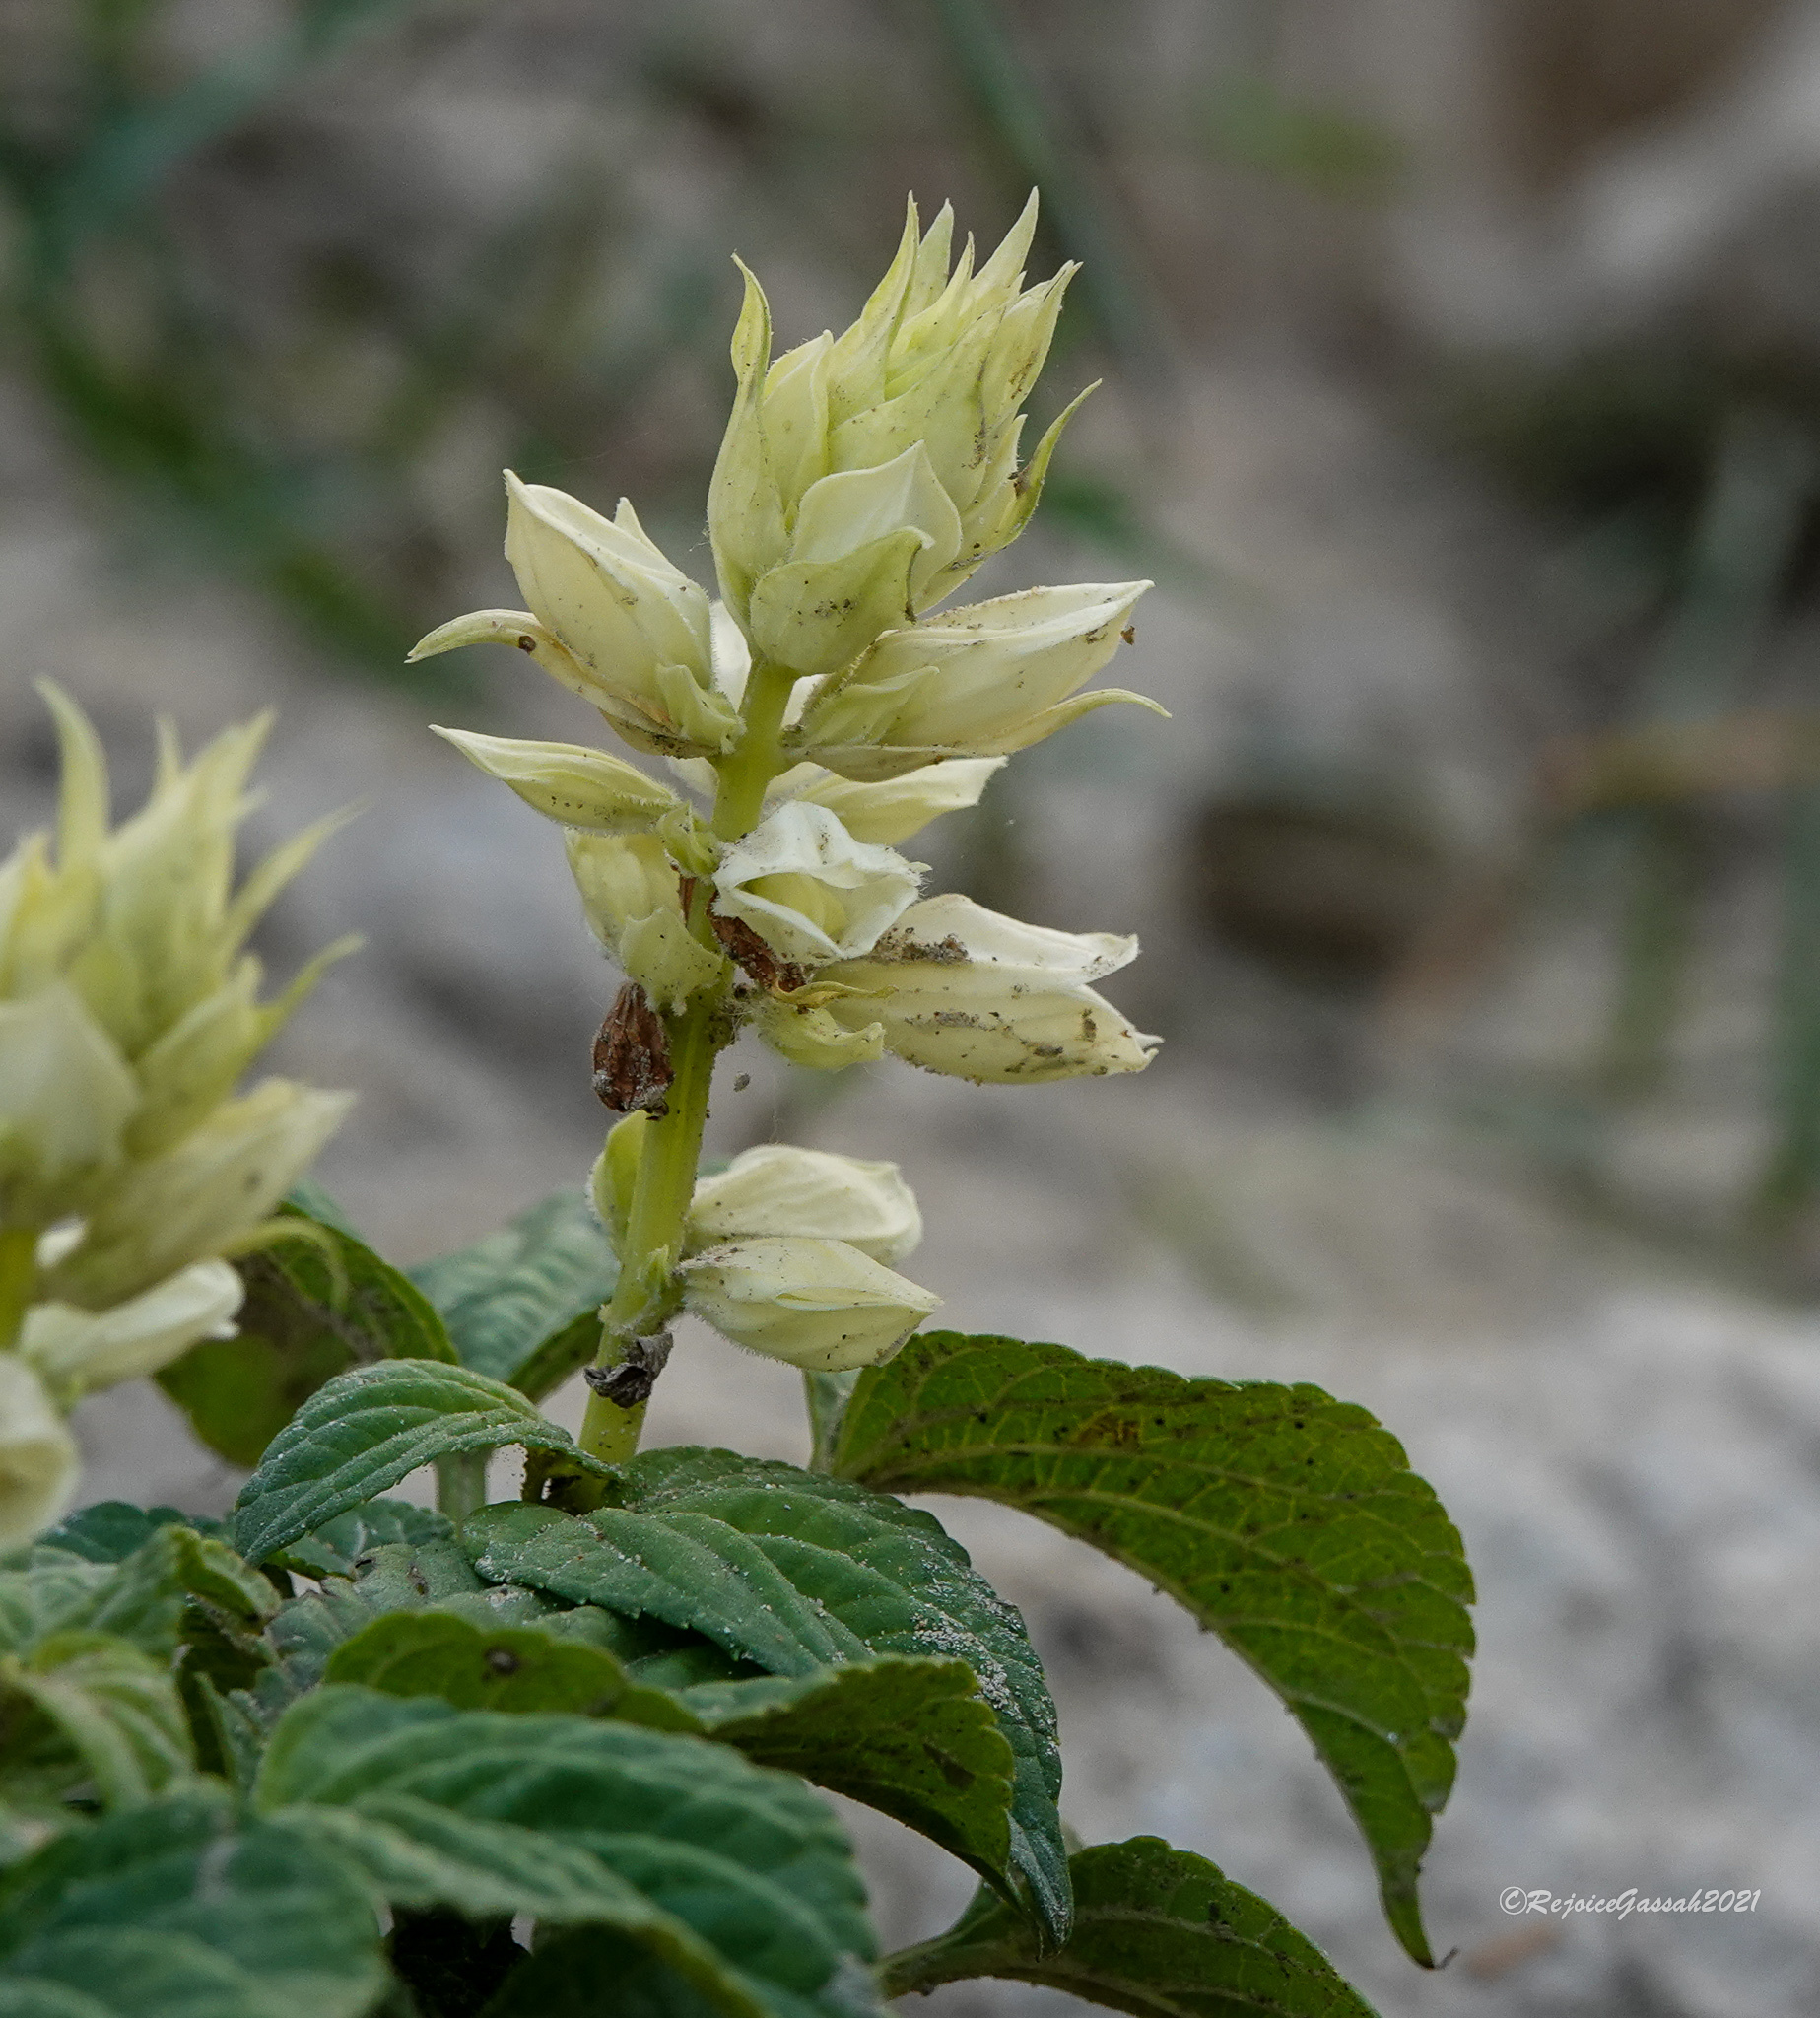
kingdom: Plantae
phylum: Tracheophyta
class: Magnoliopsida
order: Lamiales
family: Lamiaceae
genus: Salvia
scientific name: Salvia splendens
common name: Scarlet sage
